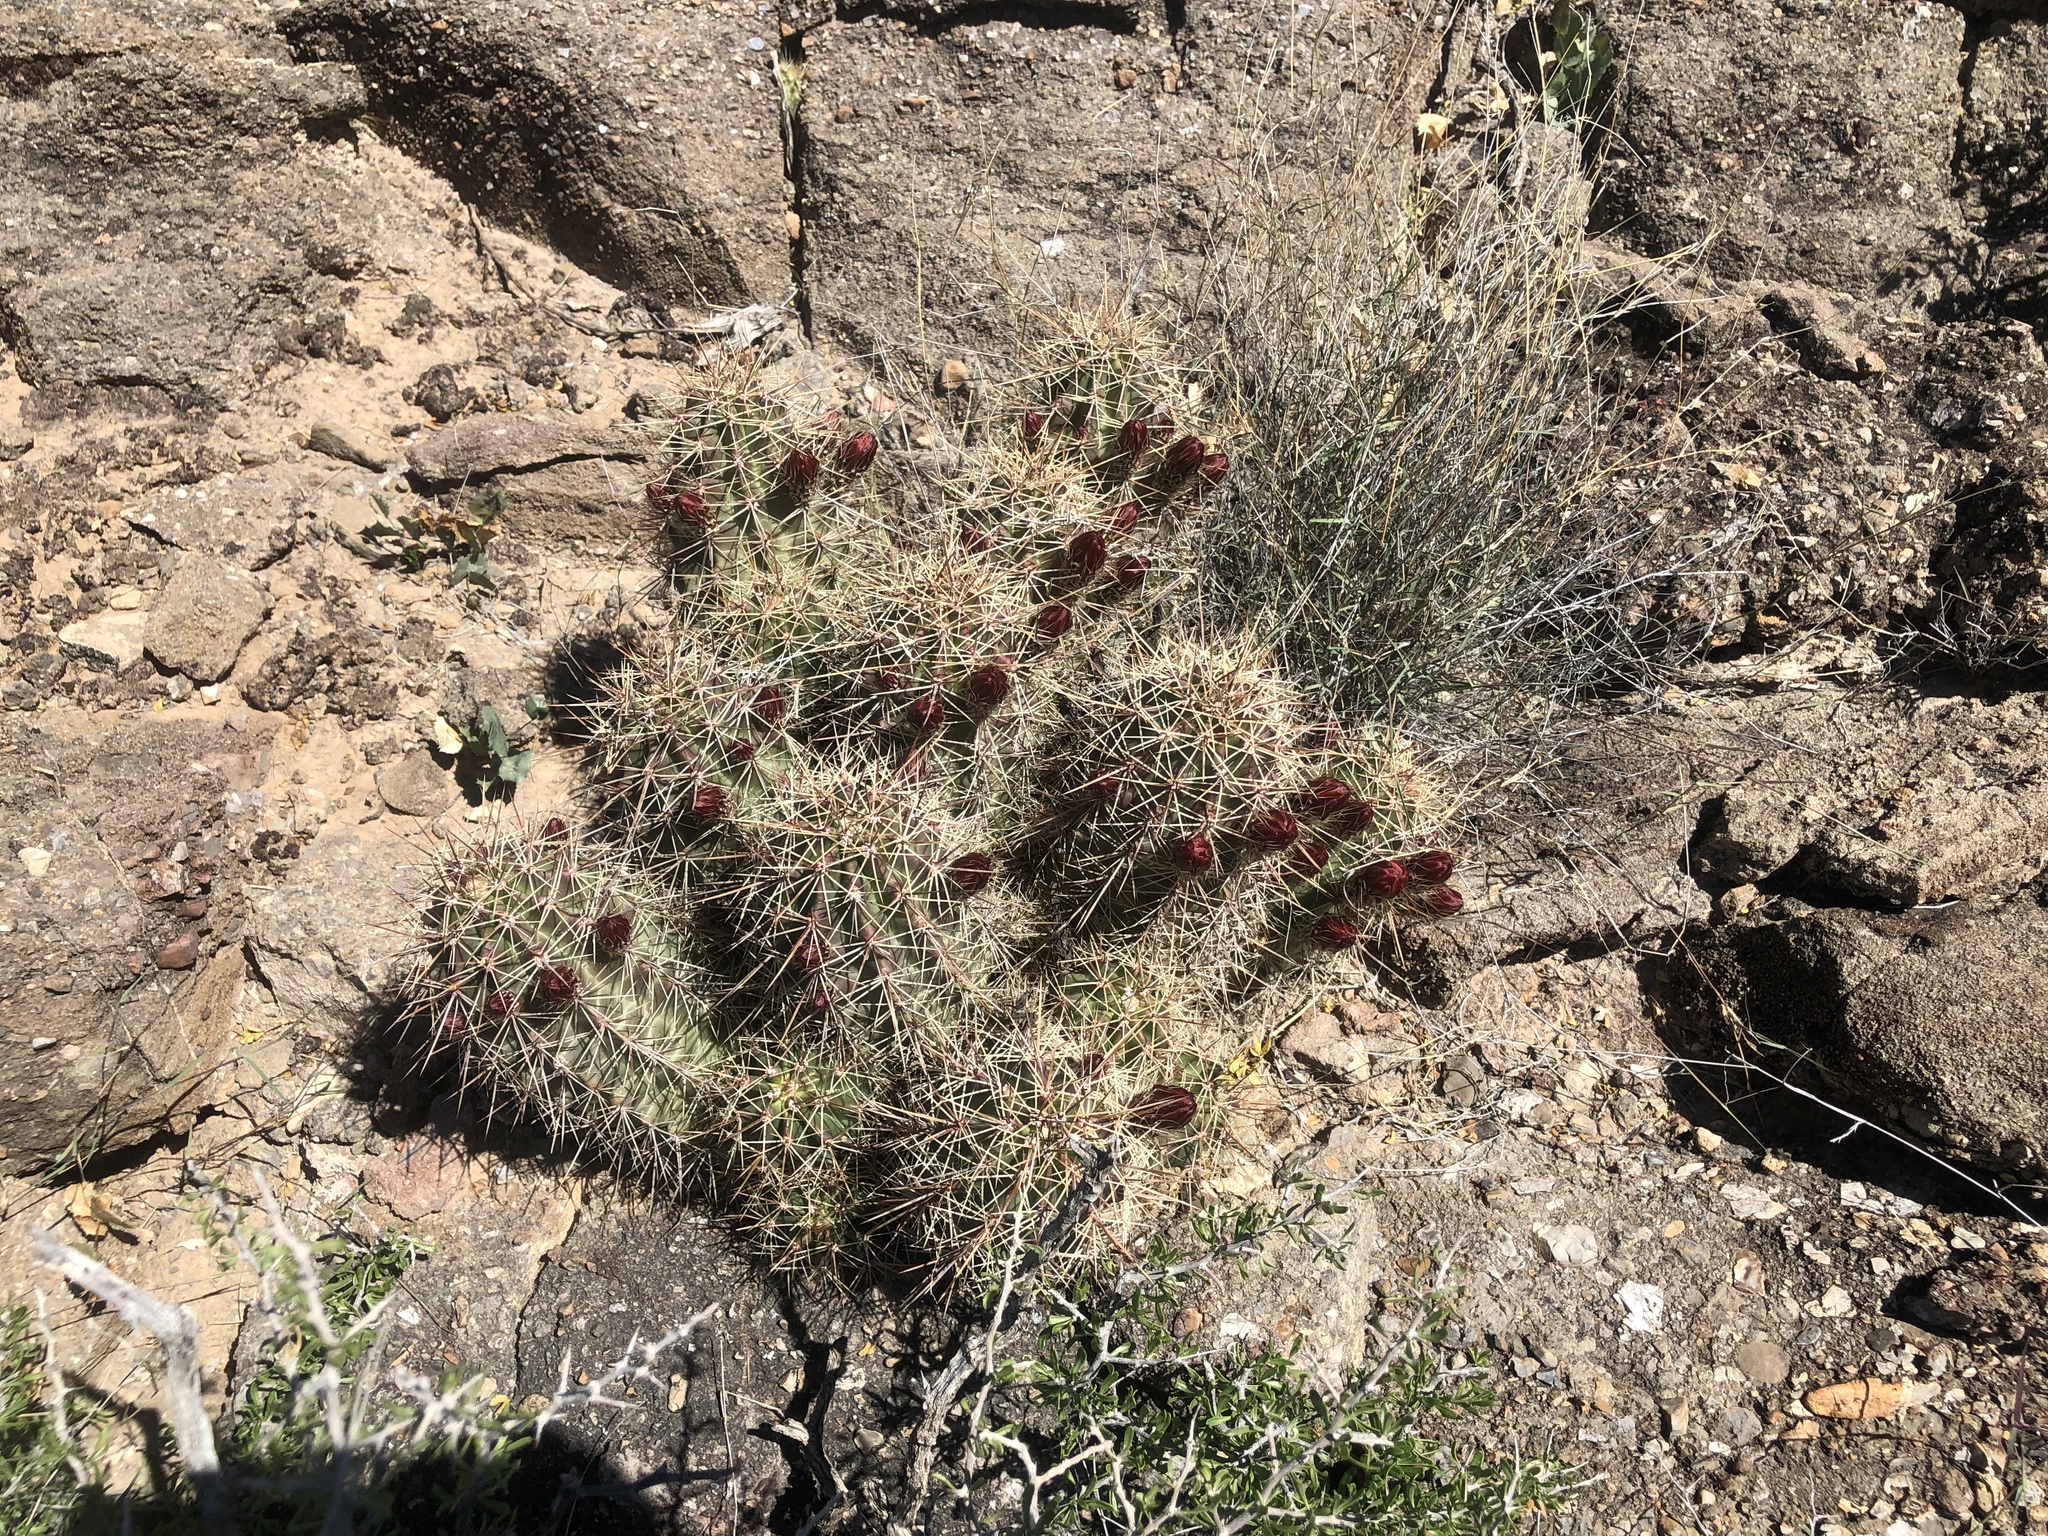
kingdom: Plantae
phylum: Tracheophyta
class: Magnoliopsida
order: Caryophyllales
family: Cactaceae
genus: Echinocereus
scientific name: Echinocereus coccineus
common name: Scarlet hedgehog cactus
